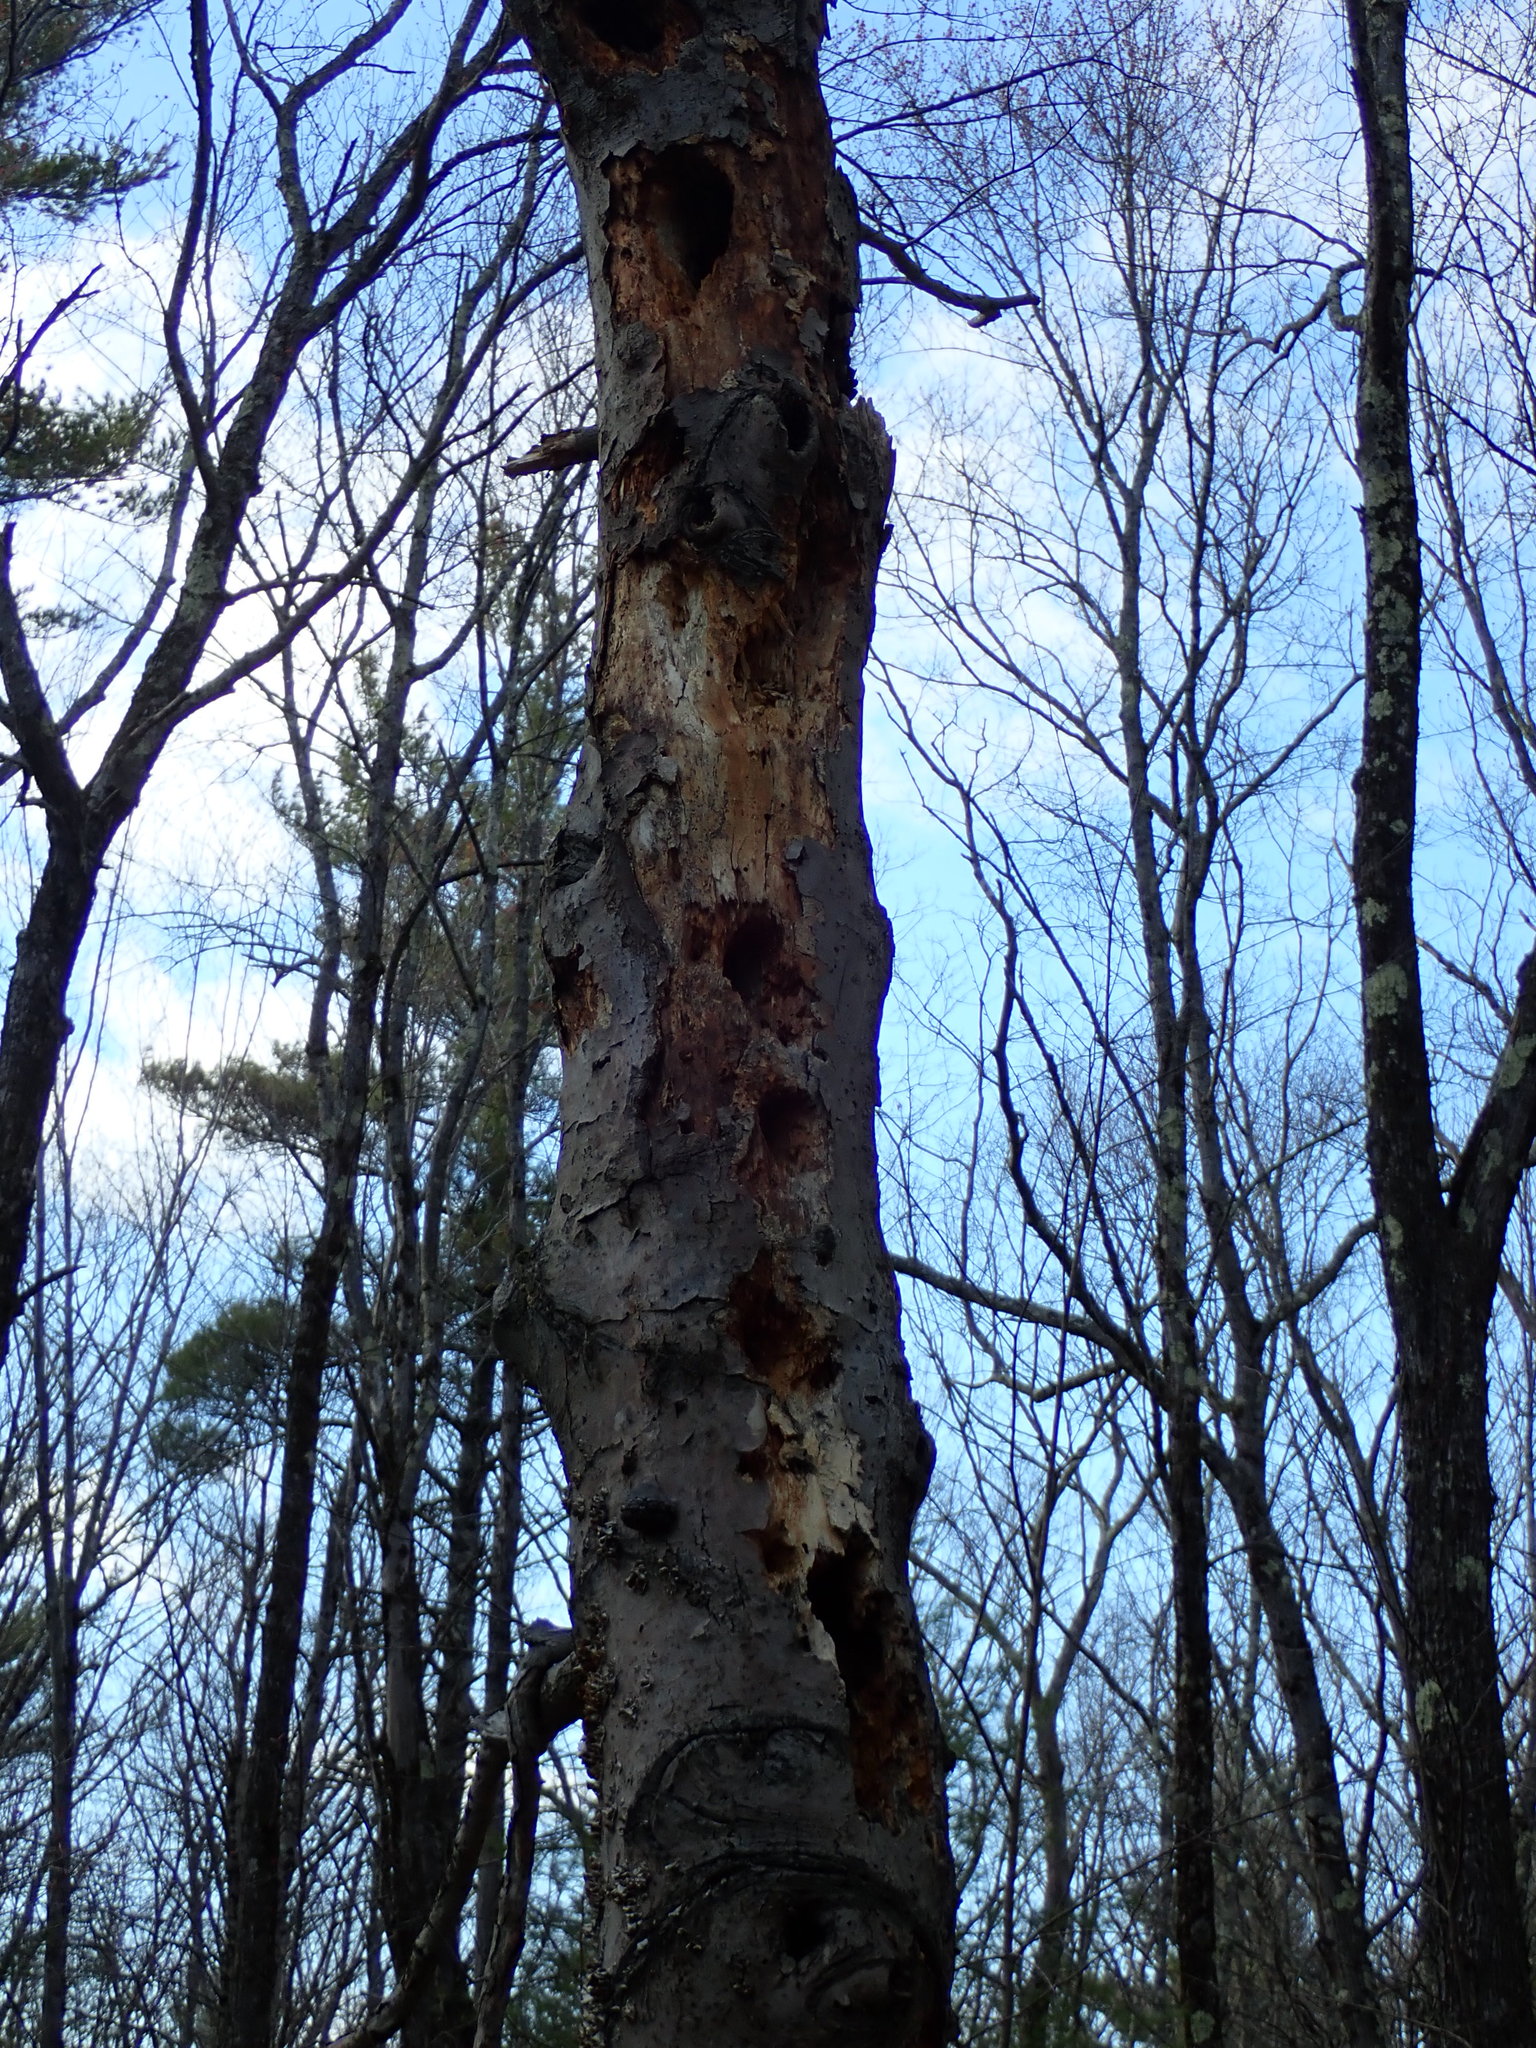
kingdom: Animalia
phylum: Chordata
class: Aves
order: Piciformes
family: Picidae
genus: Dryocopus
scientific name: Dryocopus pileatus
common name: Pileated woodpecker
